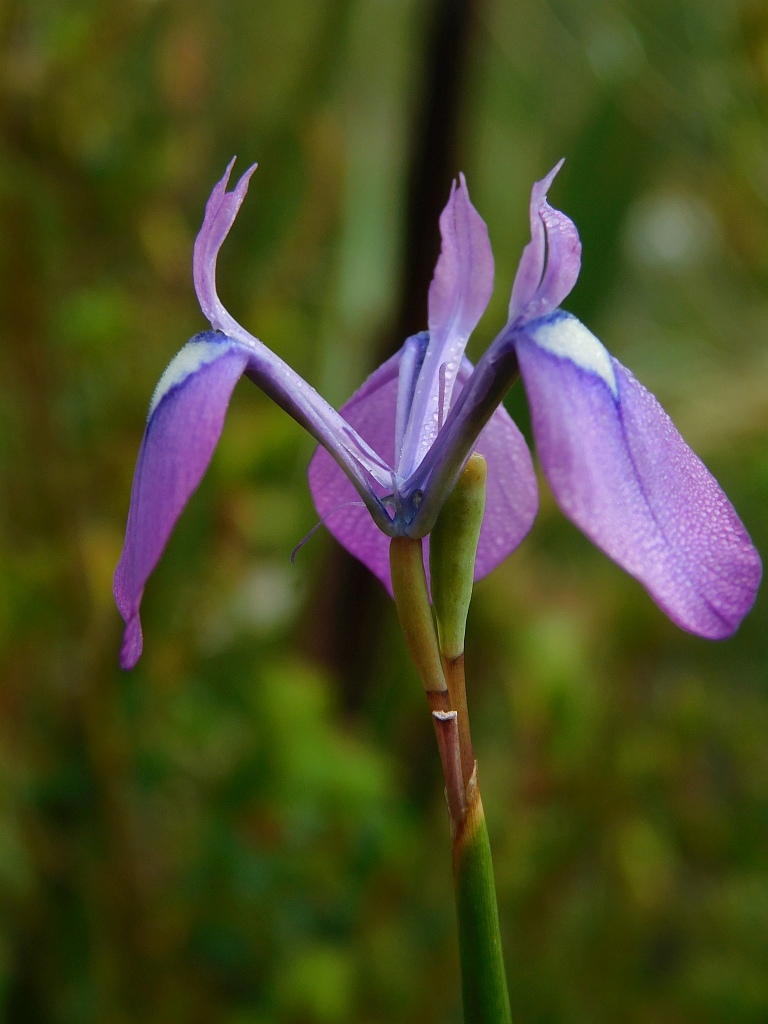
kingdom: Plantae
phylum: Tracheophyta
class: Liliopsida
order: Asparagales
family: Iridaceae
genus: Moraea
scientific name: Moraea tripetala
